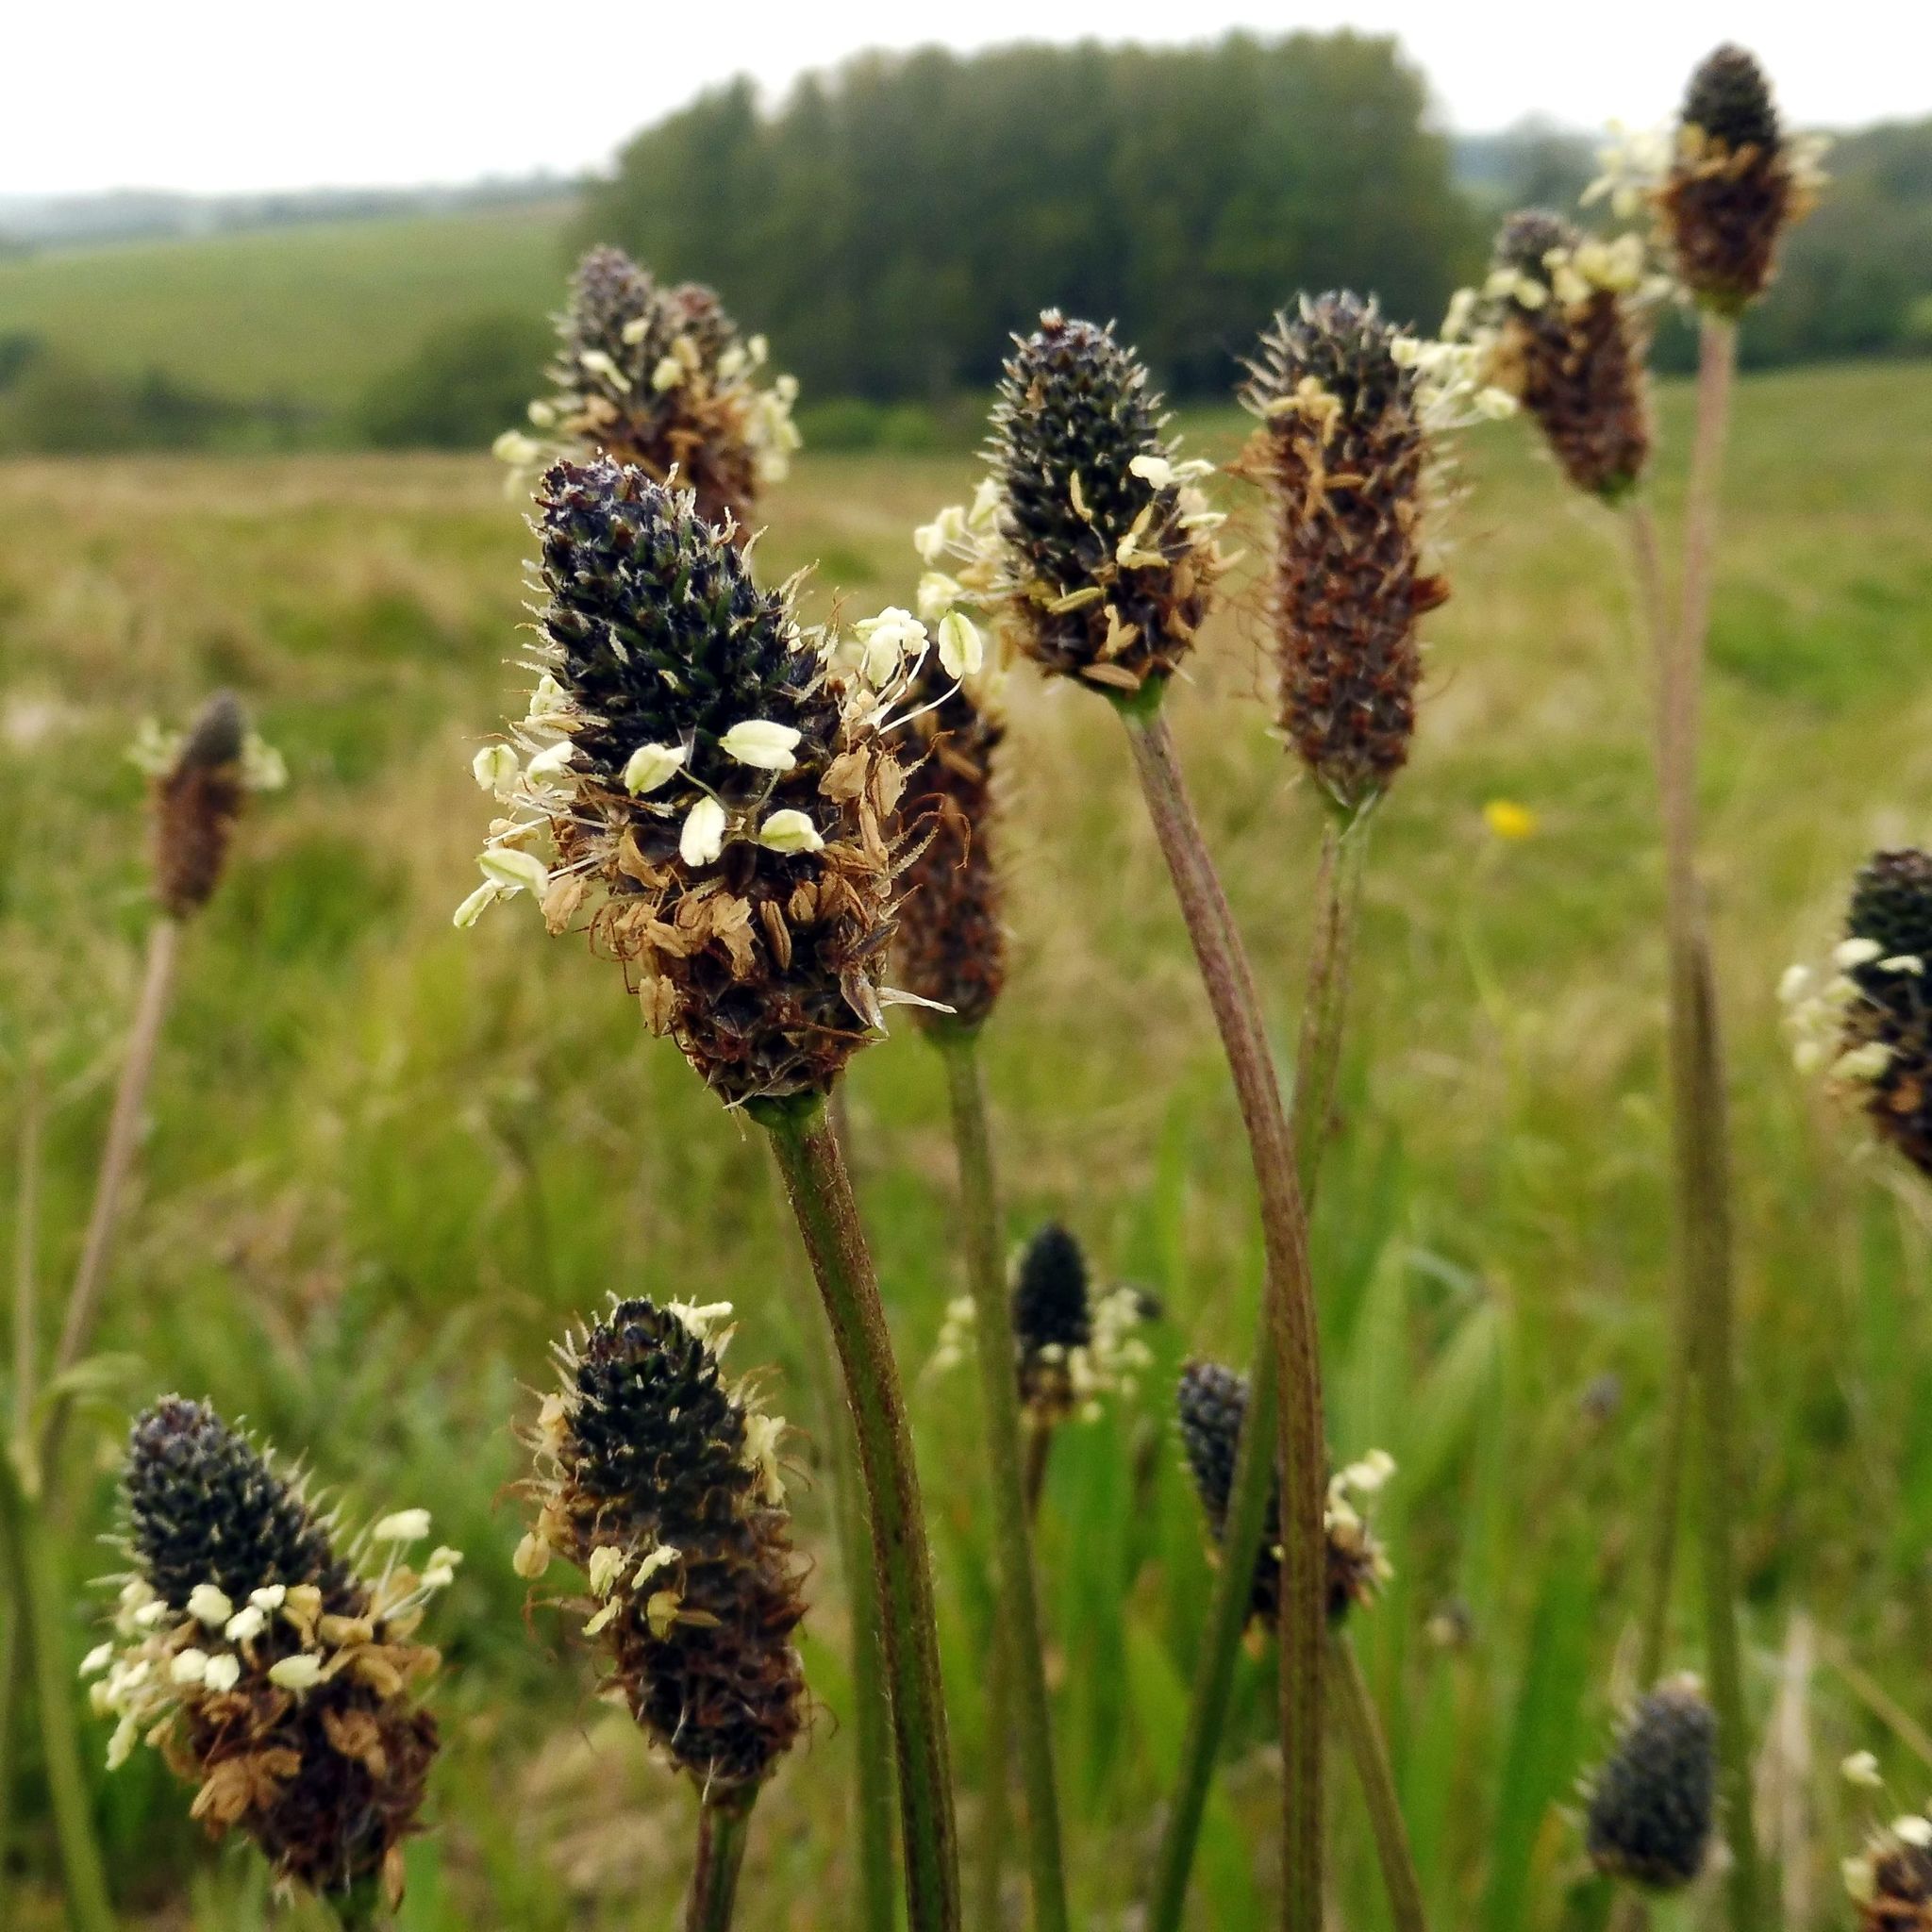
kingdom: Plantae
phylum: Tracheophyta
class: Magnoliopsida
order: Lamiales
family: Plantaginaceae
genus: Plantago
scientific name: Plantago lanceolata
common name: Ribwort plantain
